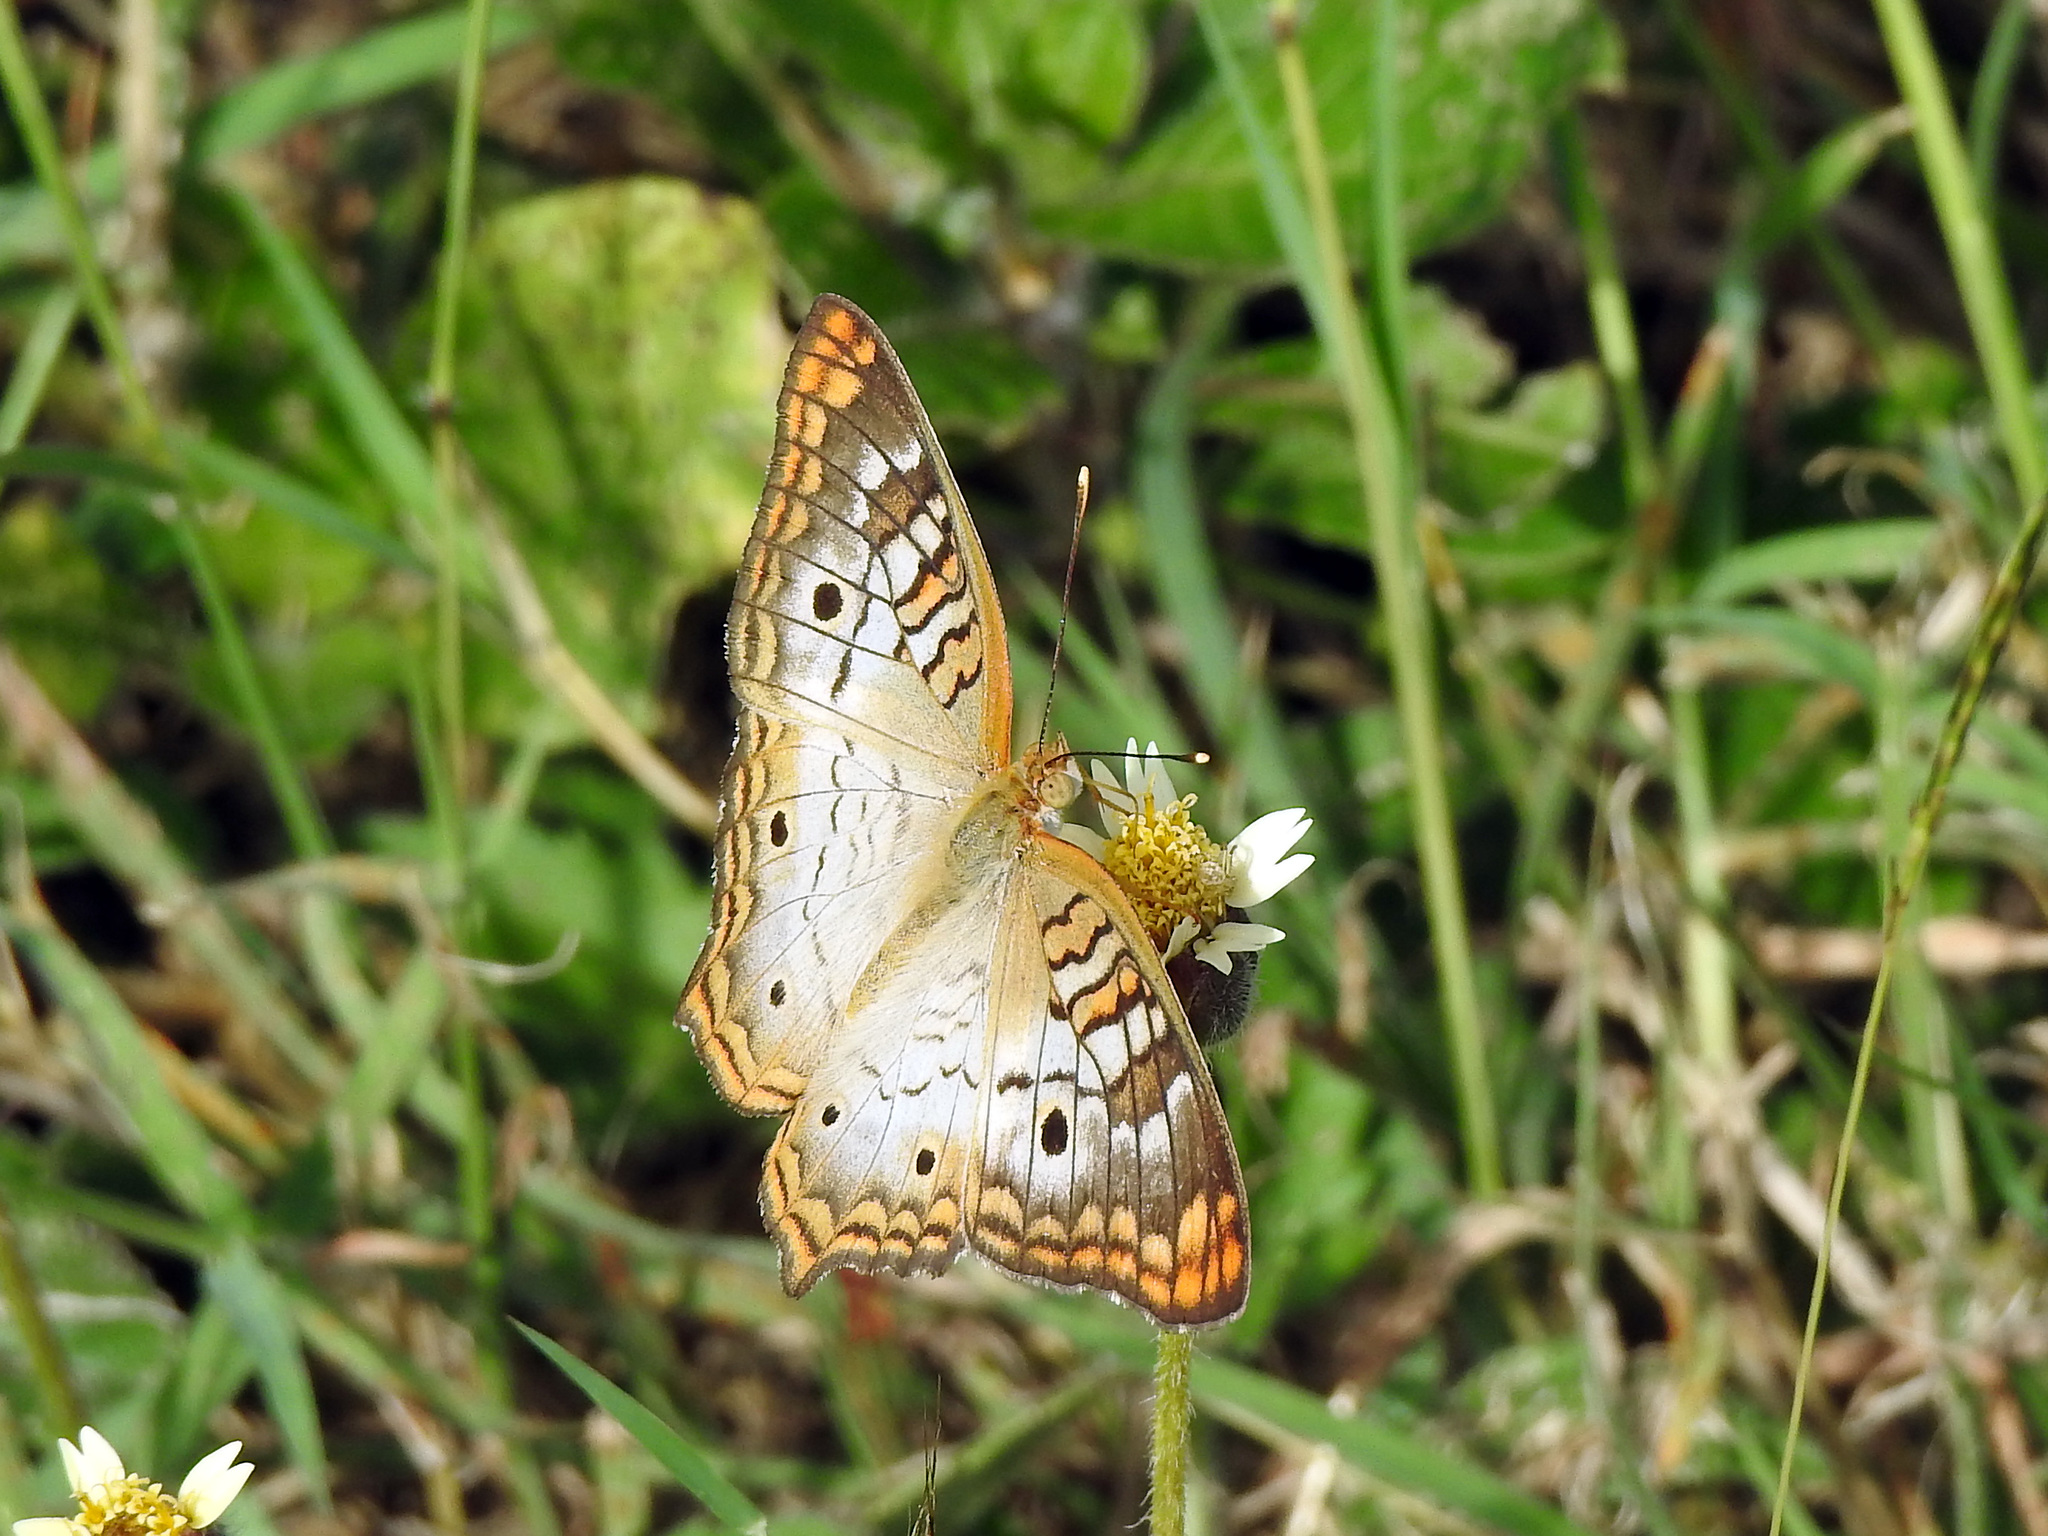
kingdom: Animalia
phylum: Arthropoda
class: Insecta
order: Lepidoptera
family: Nymphalidae
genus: Anartia
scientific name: Anartia jatrophae
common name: White peacock
